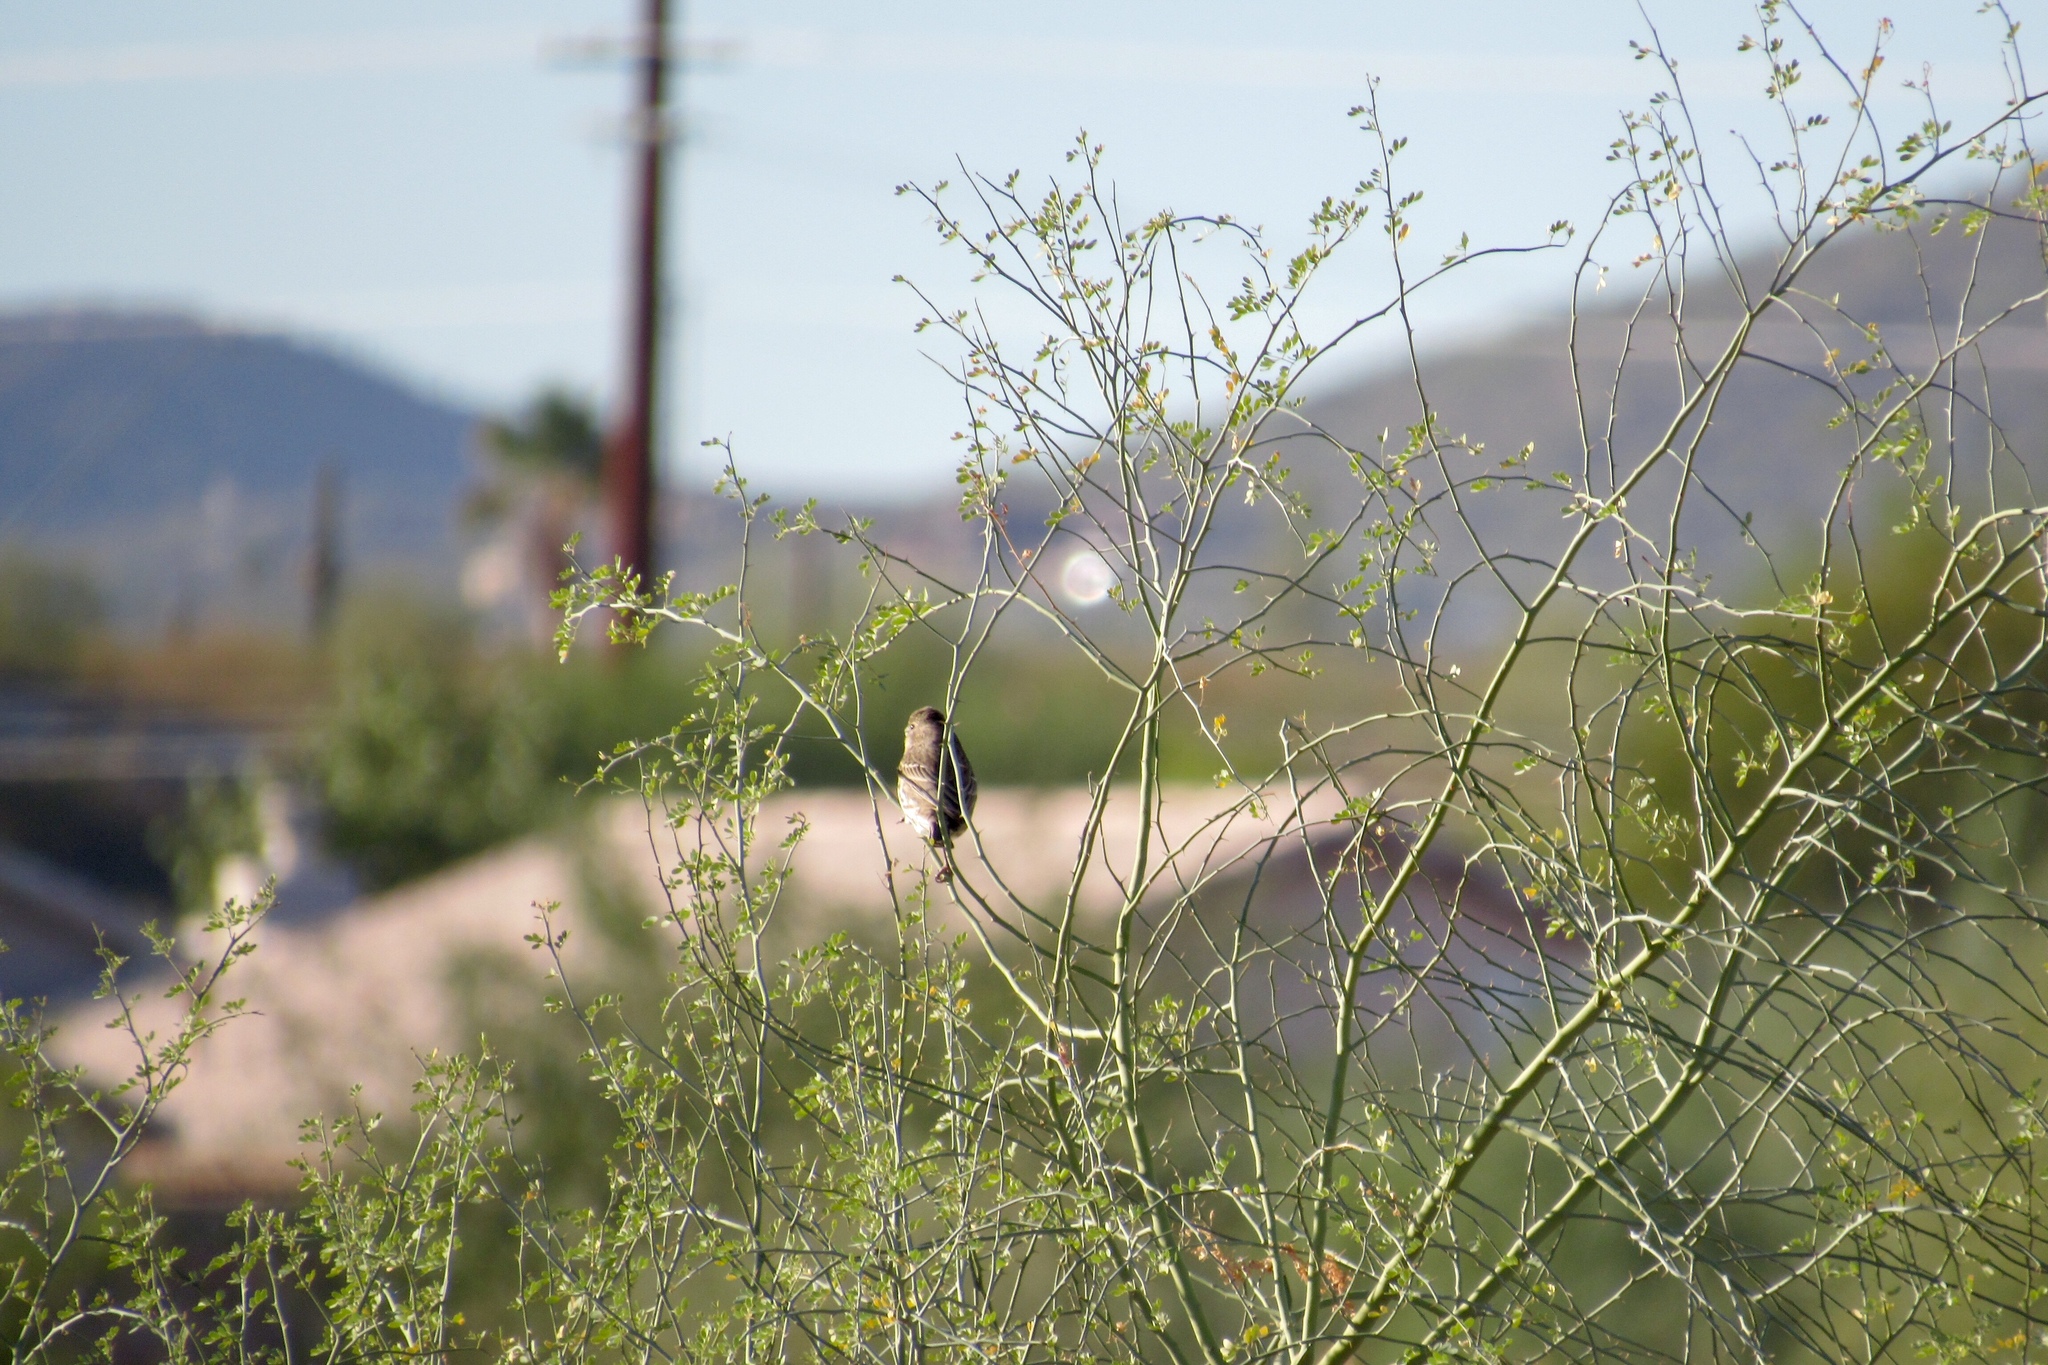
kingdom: Animalia
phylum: Chordata
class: Aves
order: Passeriformes
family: Fringillidae
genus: Haemorhous
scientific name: Haemorhous mexicanus
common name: House finch
